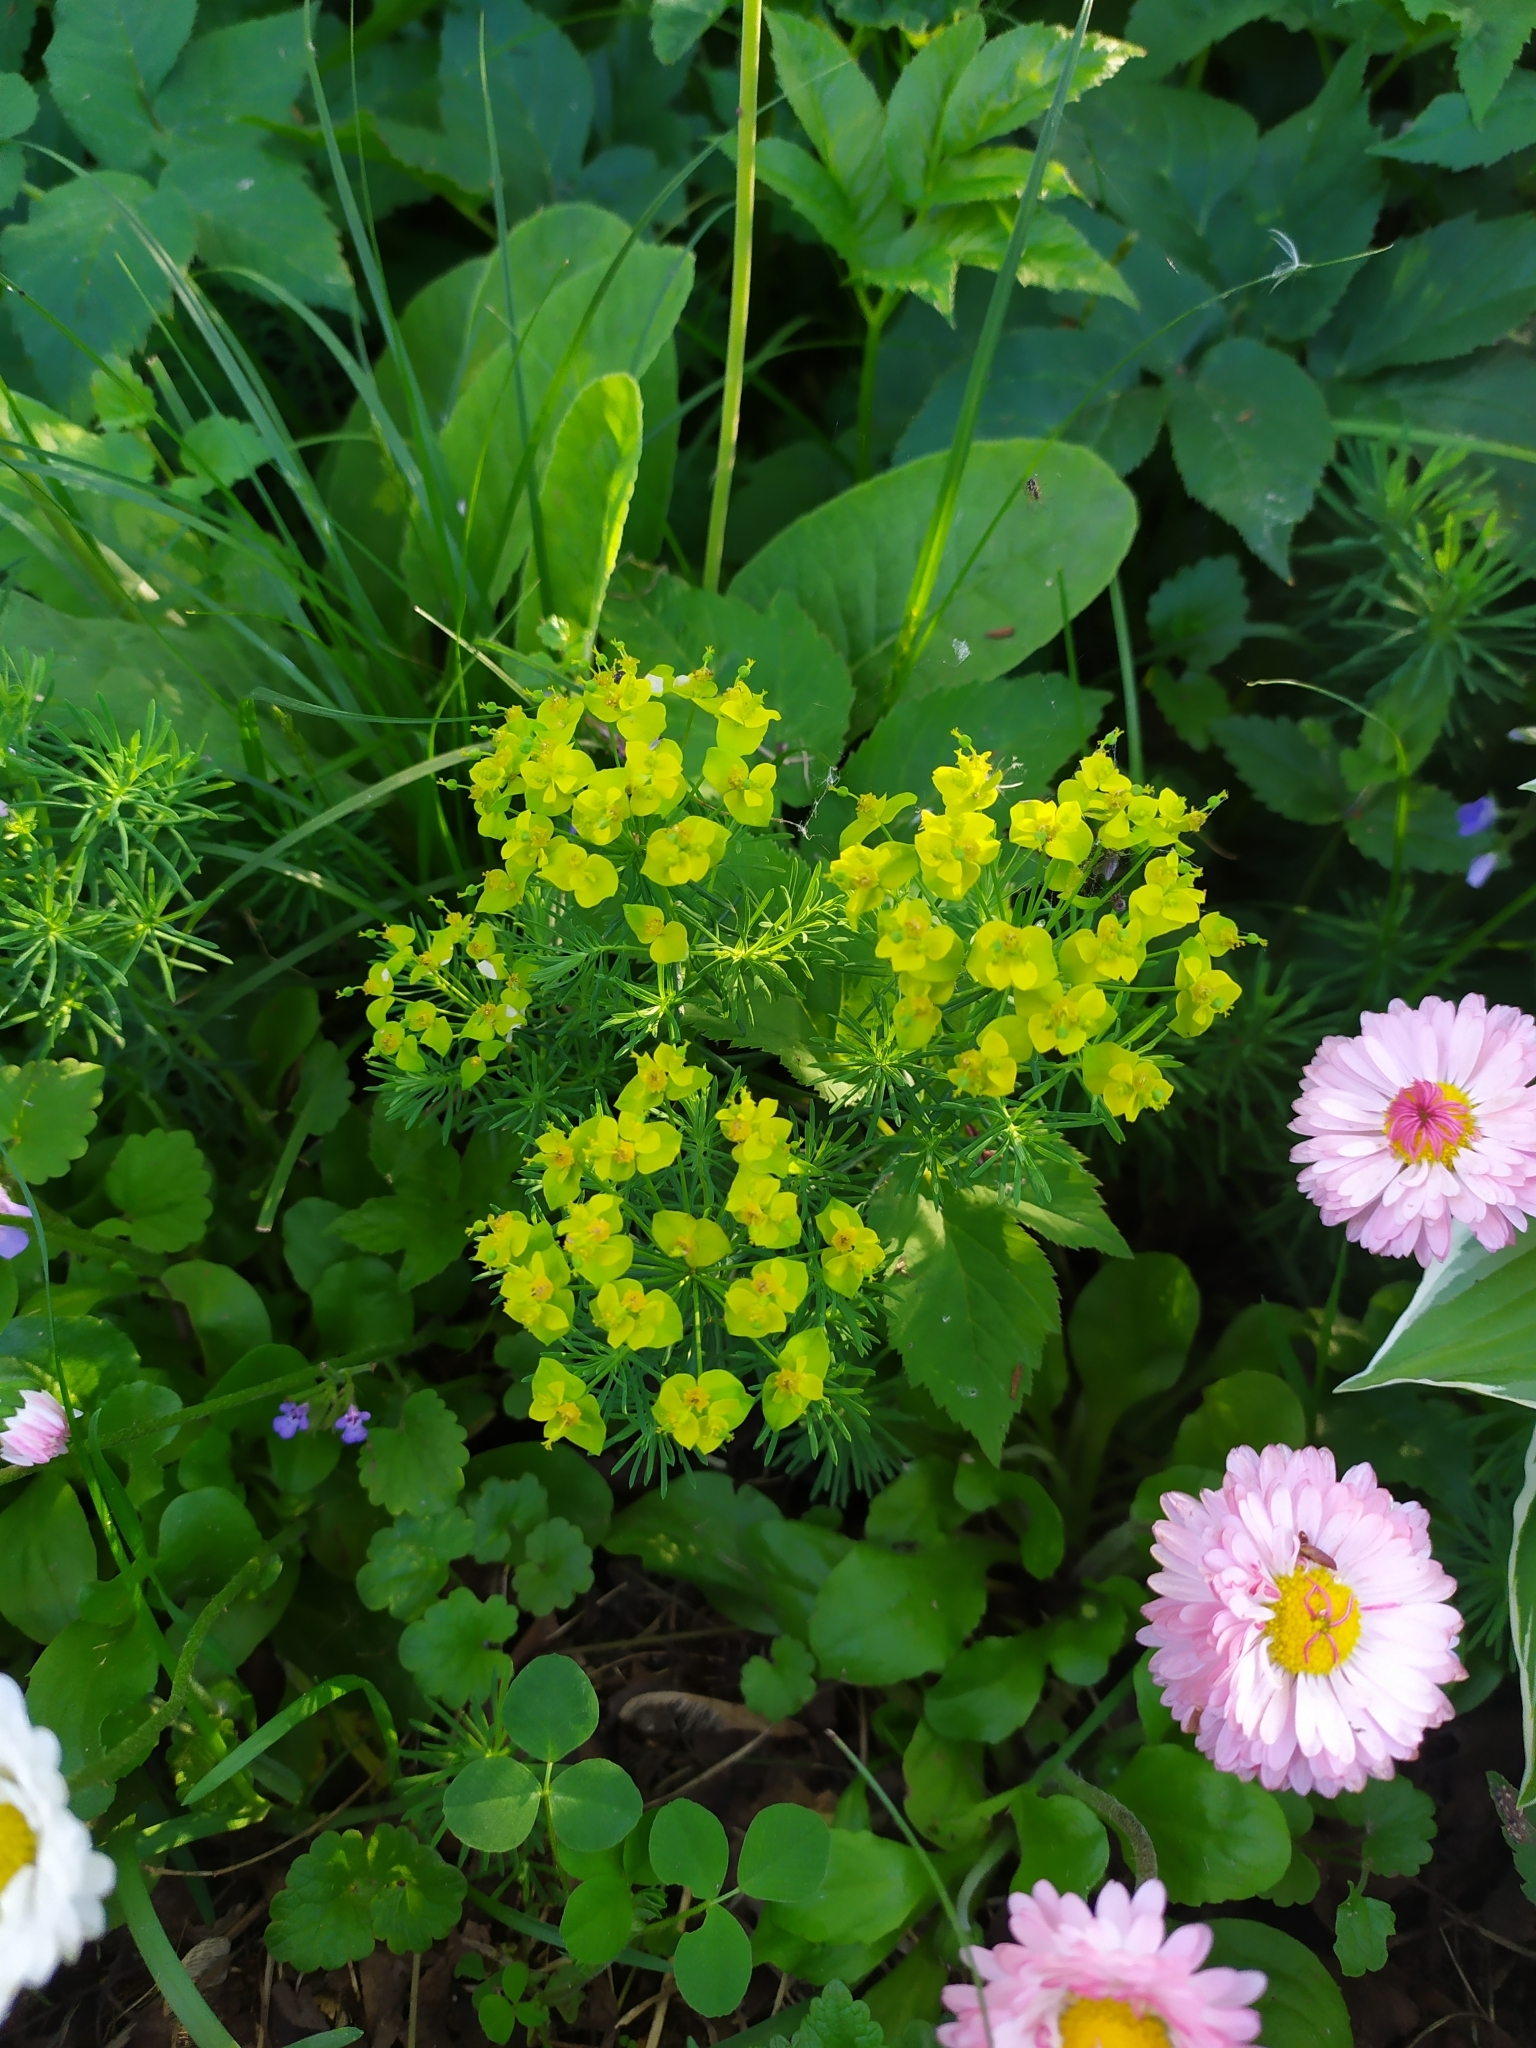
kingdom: Plantae
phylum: Tracheophyta
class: Magnoliopsida
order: Malpighiales
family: Euphorbiaceae
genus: Euphorbia
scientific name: Euphorbia cyparissias
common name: Cypress spurge
